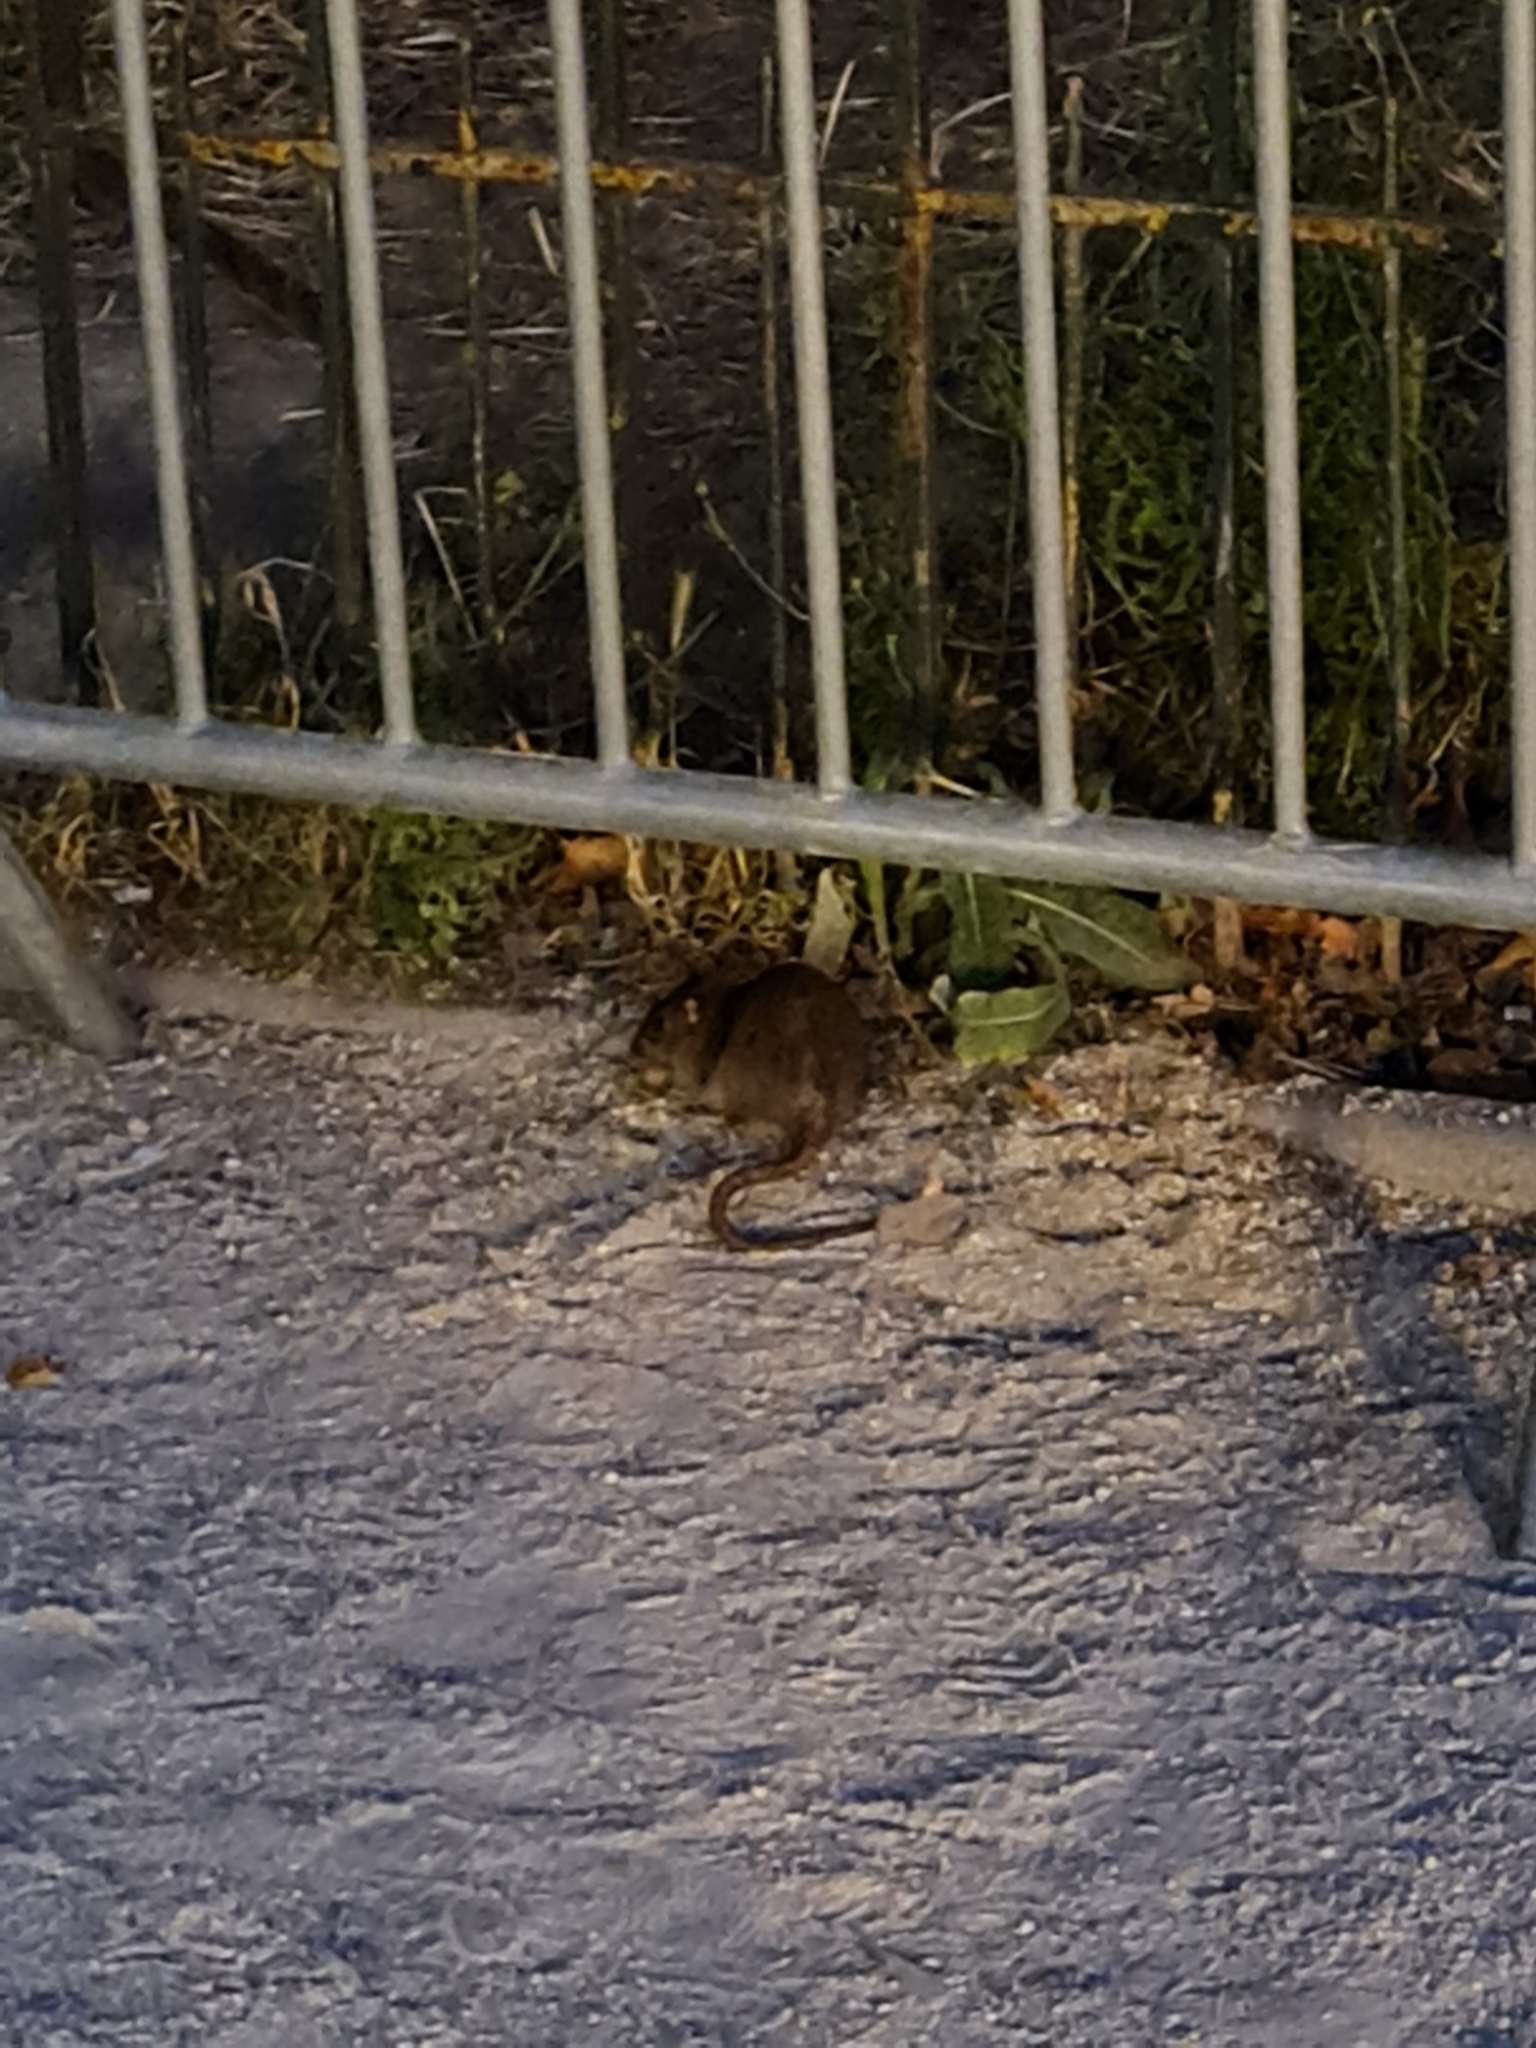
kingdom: Animalia
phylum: Chordata
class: Mammalia
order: Rodentia
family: Muridae
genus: Rattus
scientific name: Rattus norvegicus
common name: Brown rat
